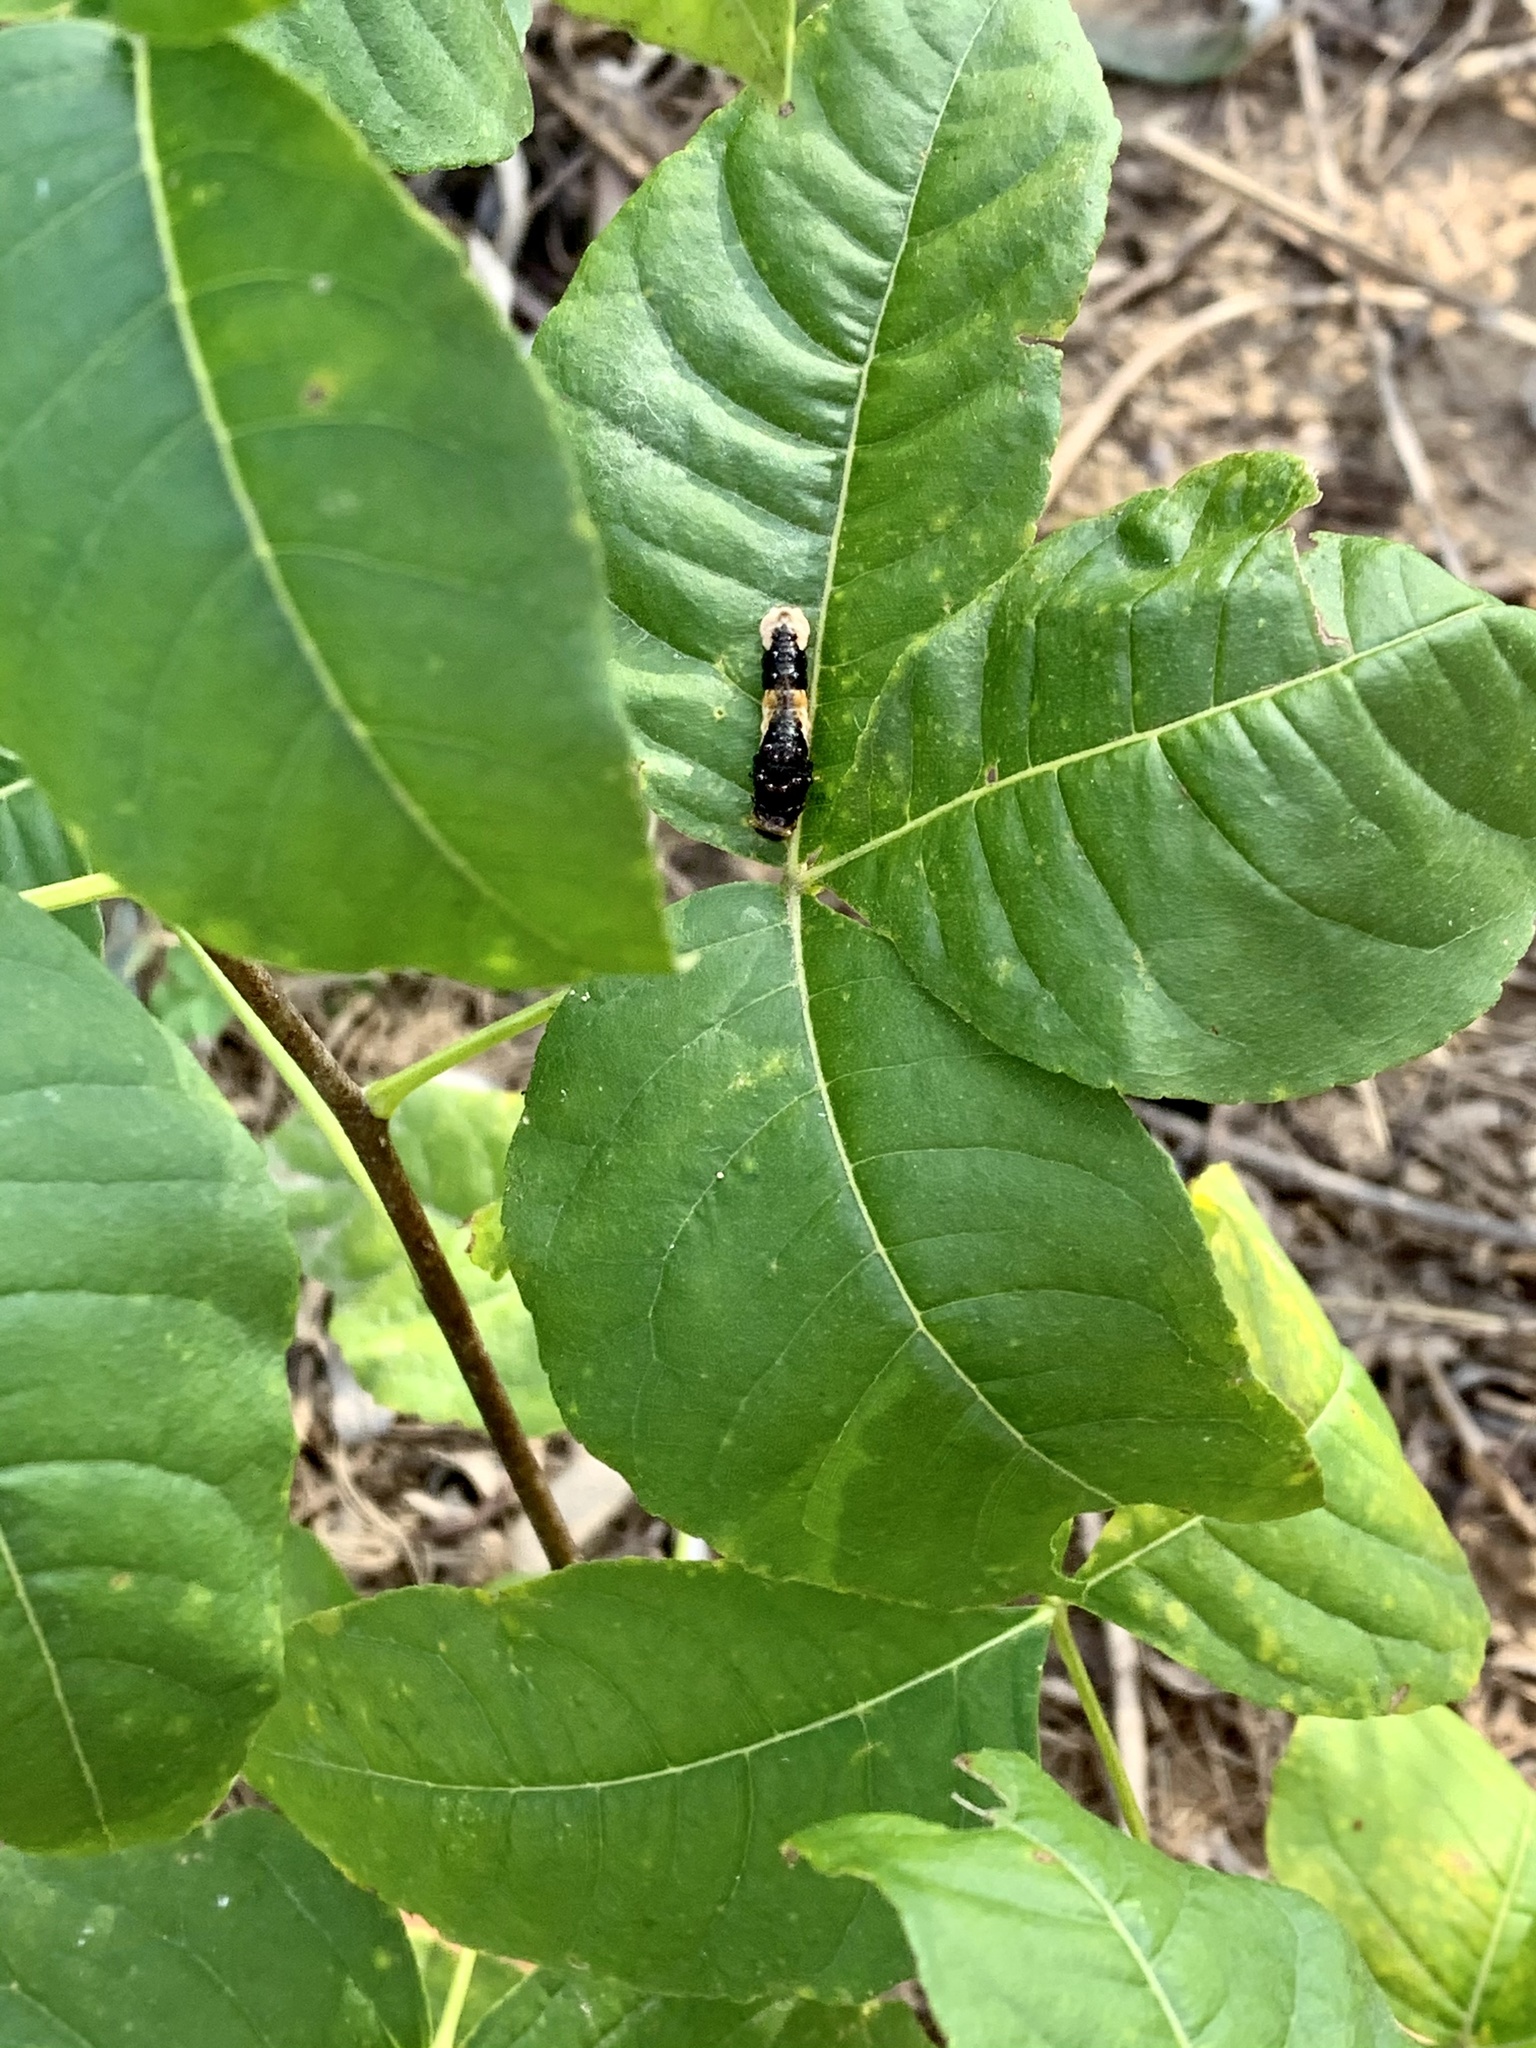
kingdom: Animalia
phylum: Arthropoda
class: Insecta
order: Lepidoptera
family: Papilionidae
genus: Papilio
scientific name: Papilio cresphontes
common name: Giant swallowtail
